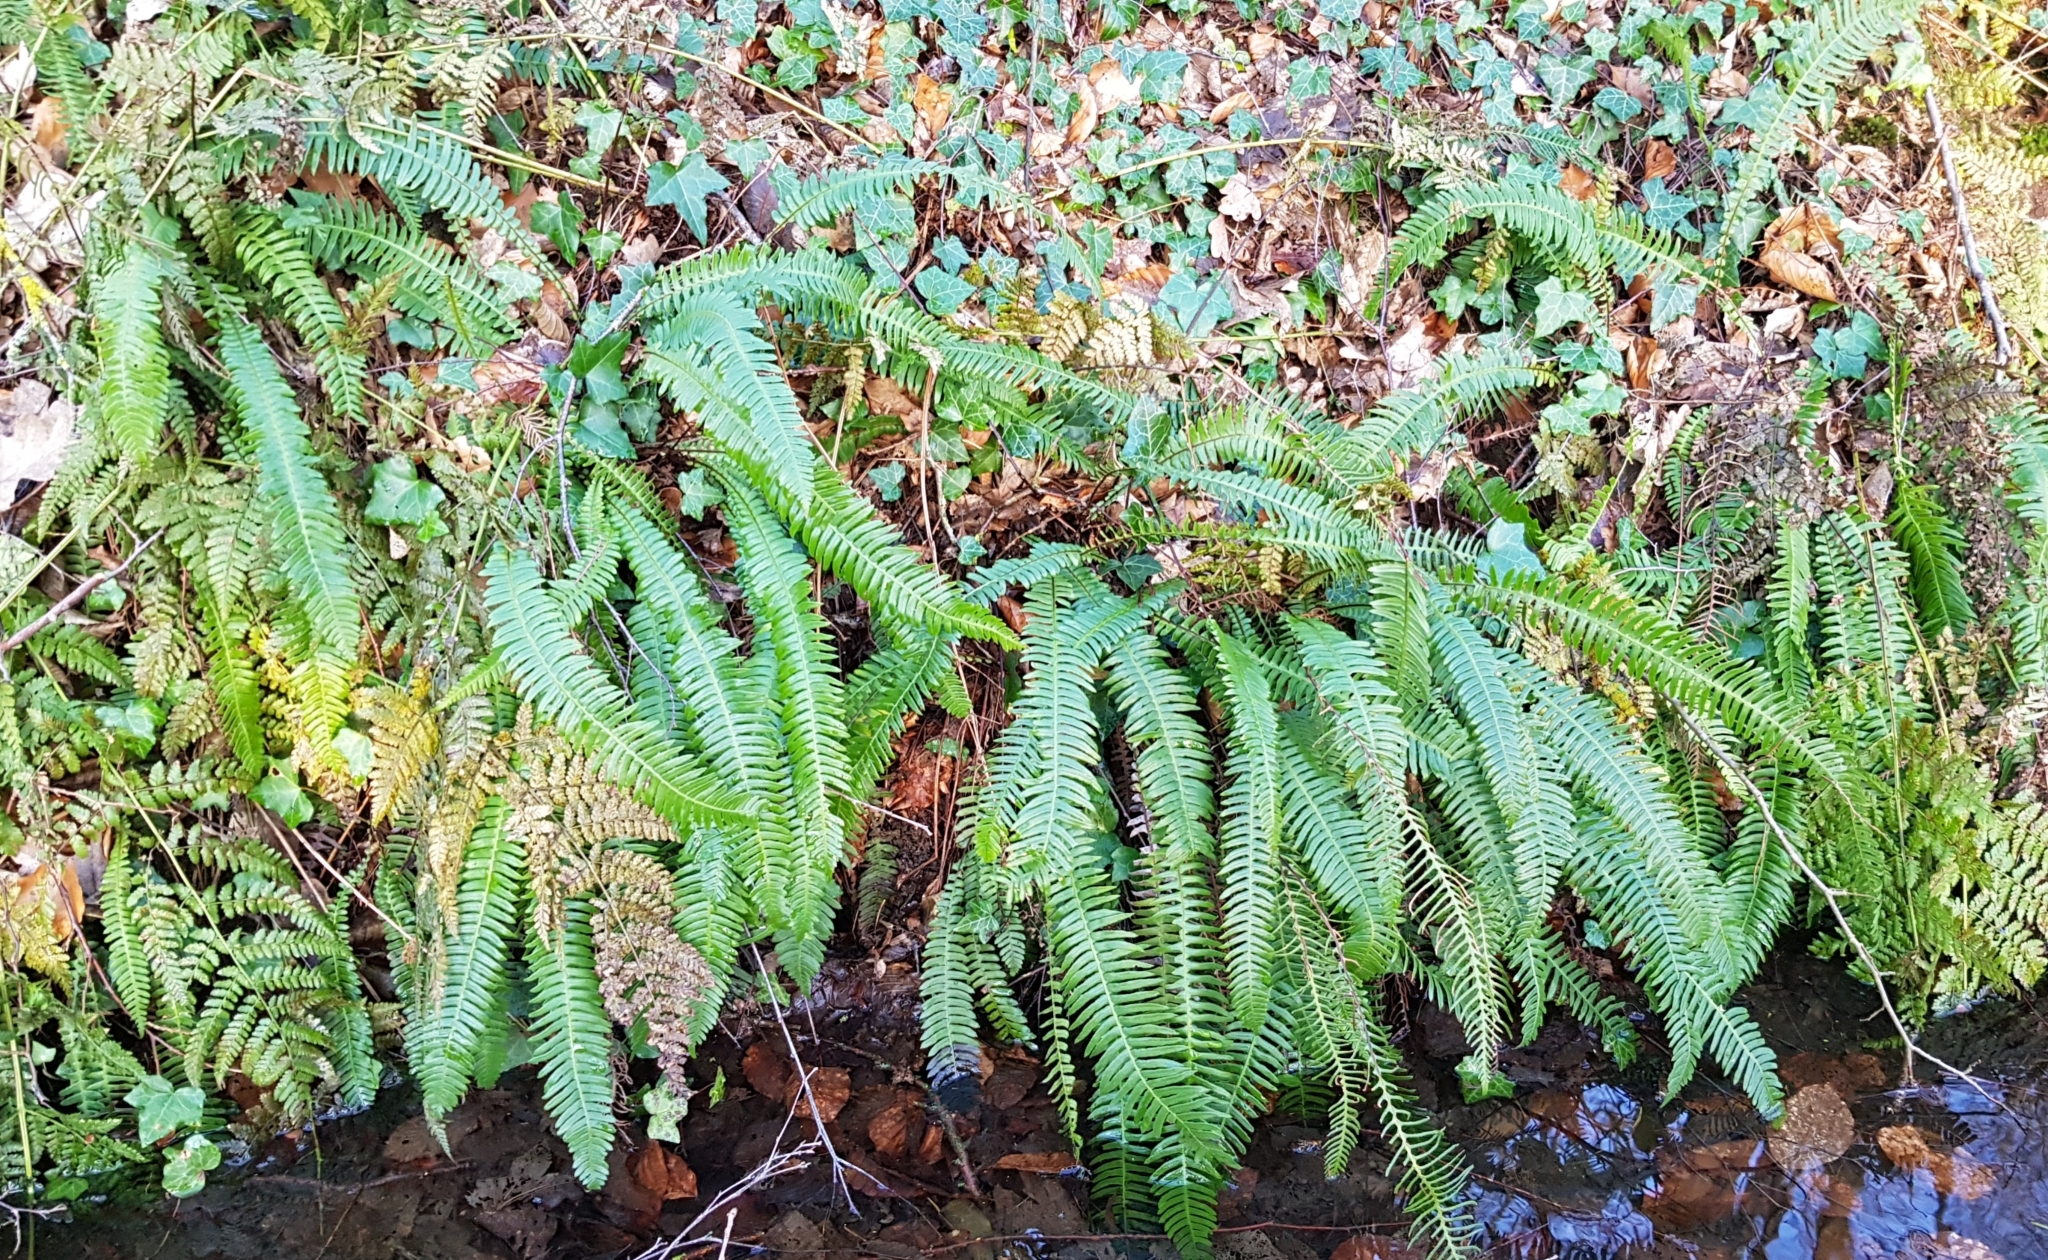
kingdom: Plantae
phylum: Tracheophyta
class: Polypodiopsida
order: Polypodiales
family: Blechnaceae
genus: Struthiopteris
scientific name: Struthiopteris spicant
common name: Deer fern
